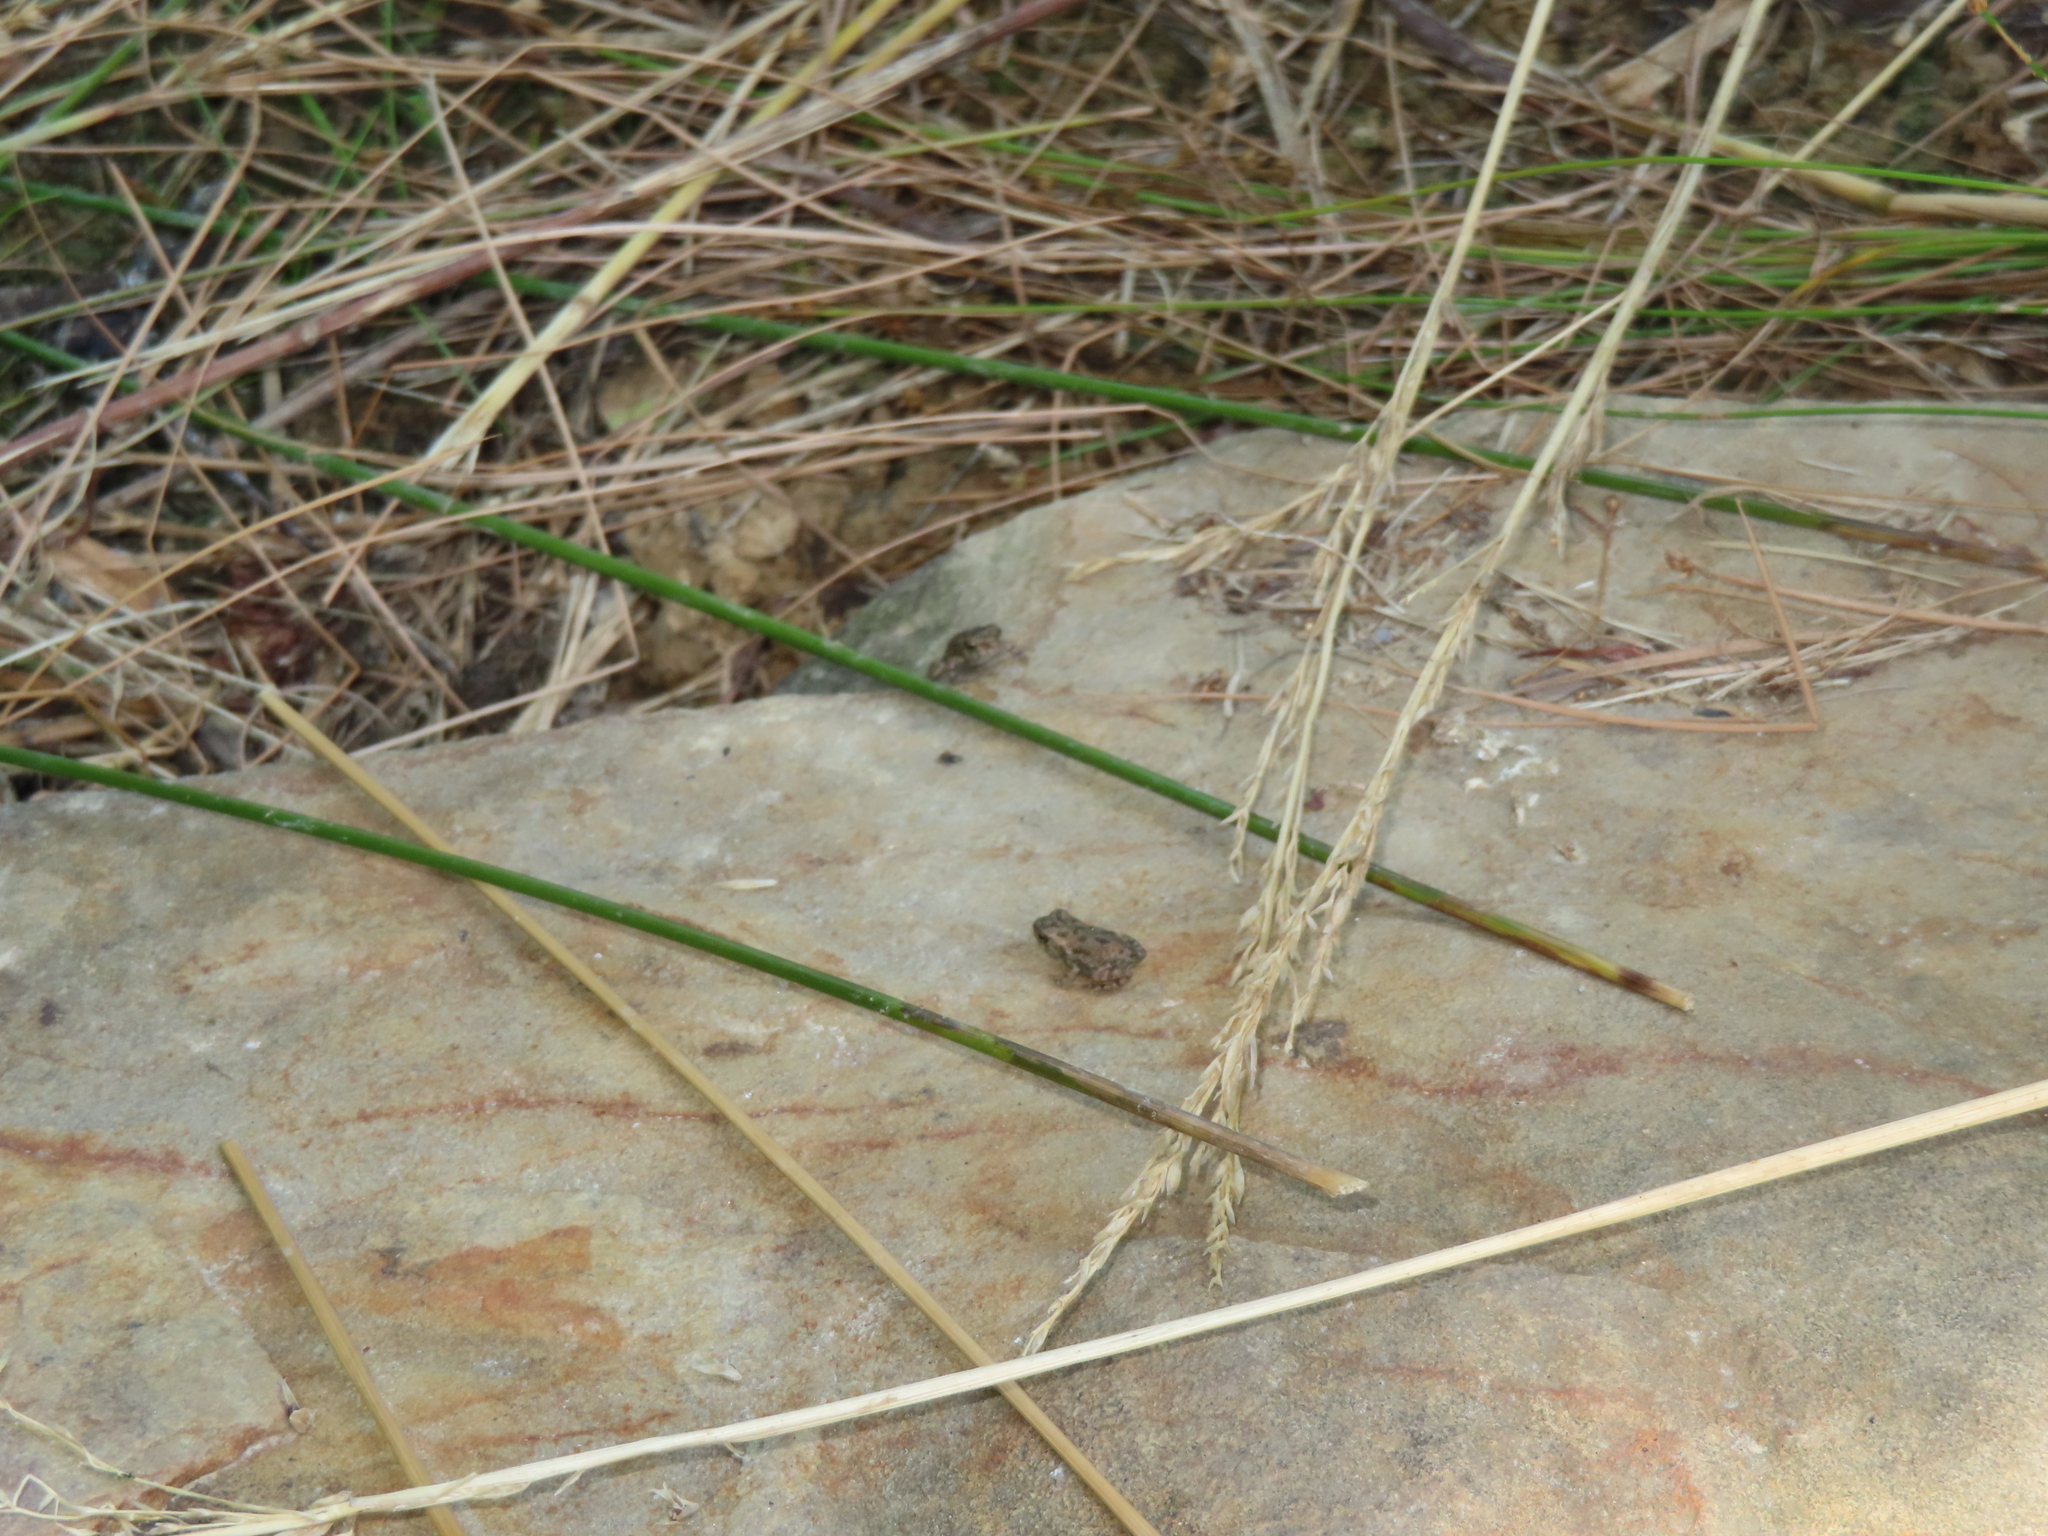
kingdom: Animalia
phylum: Chordata
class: Amphibia
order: Anura
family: Bufonidae
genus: Anaxyrus
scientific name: Anaxyrus fowleri
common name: Fowler's toad
